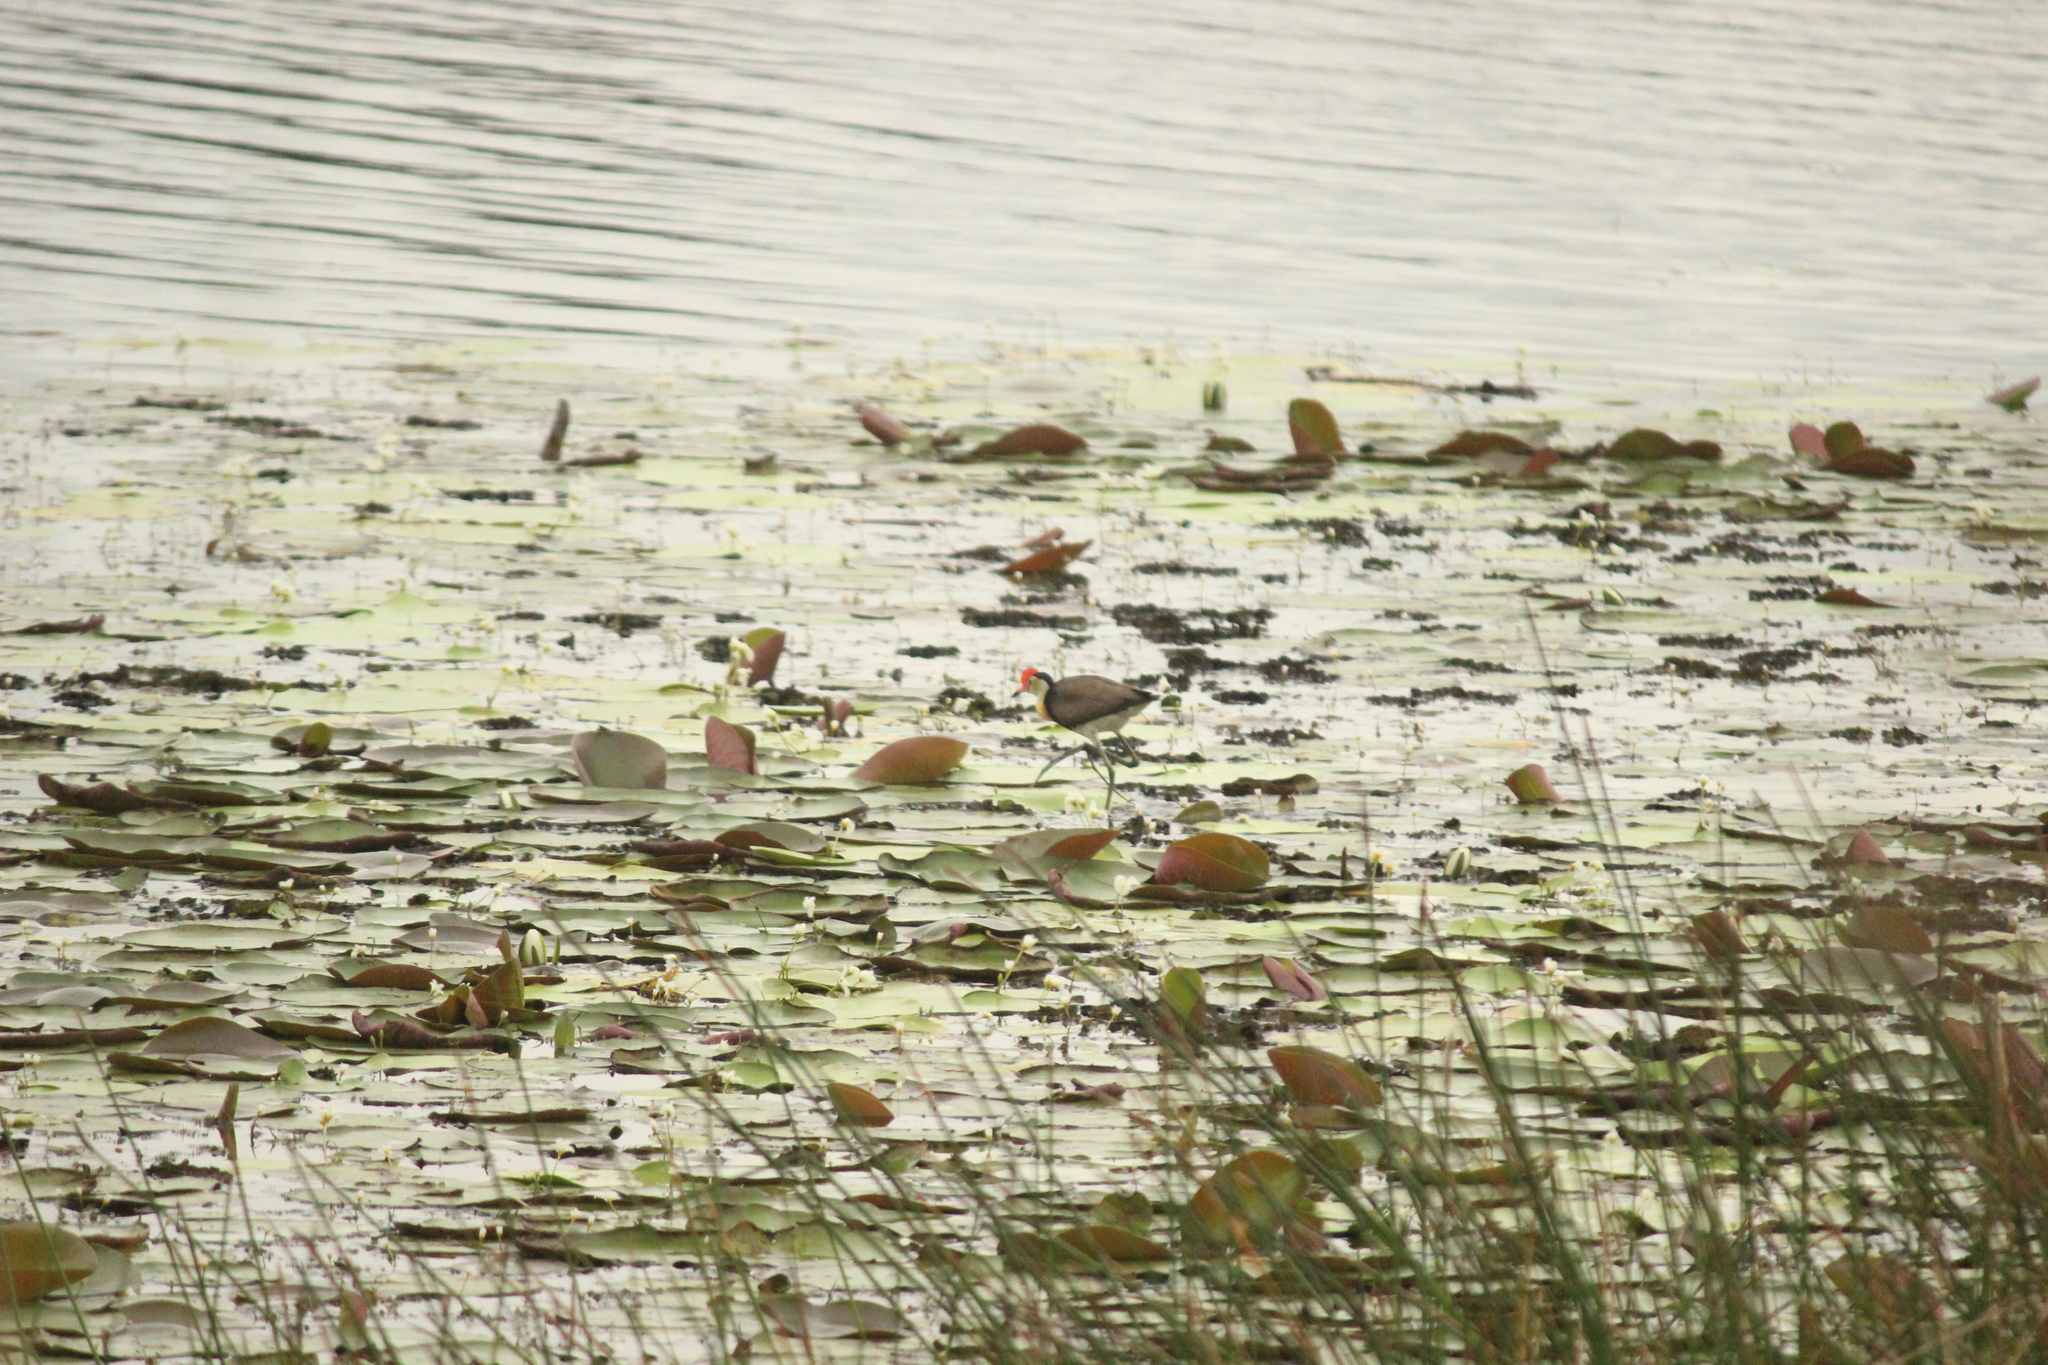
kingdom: Animalia
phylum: Chordata
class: Aves
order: Charadriiformes
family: Jacanidae
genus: Irediparra
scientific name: Irediparra gallinacea
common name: Comb-crested jacana
